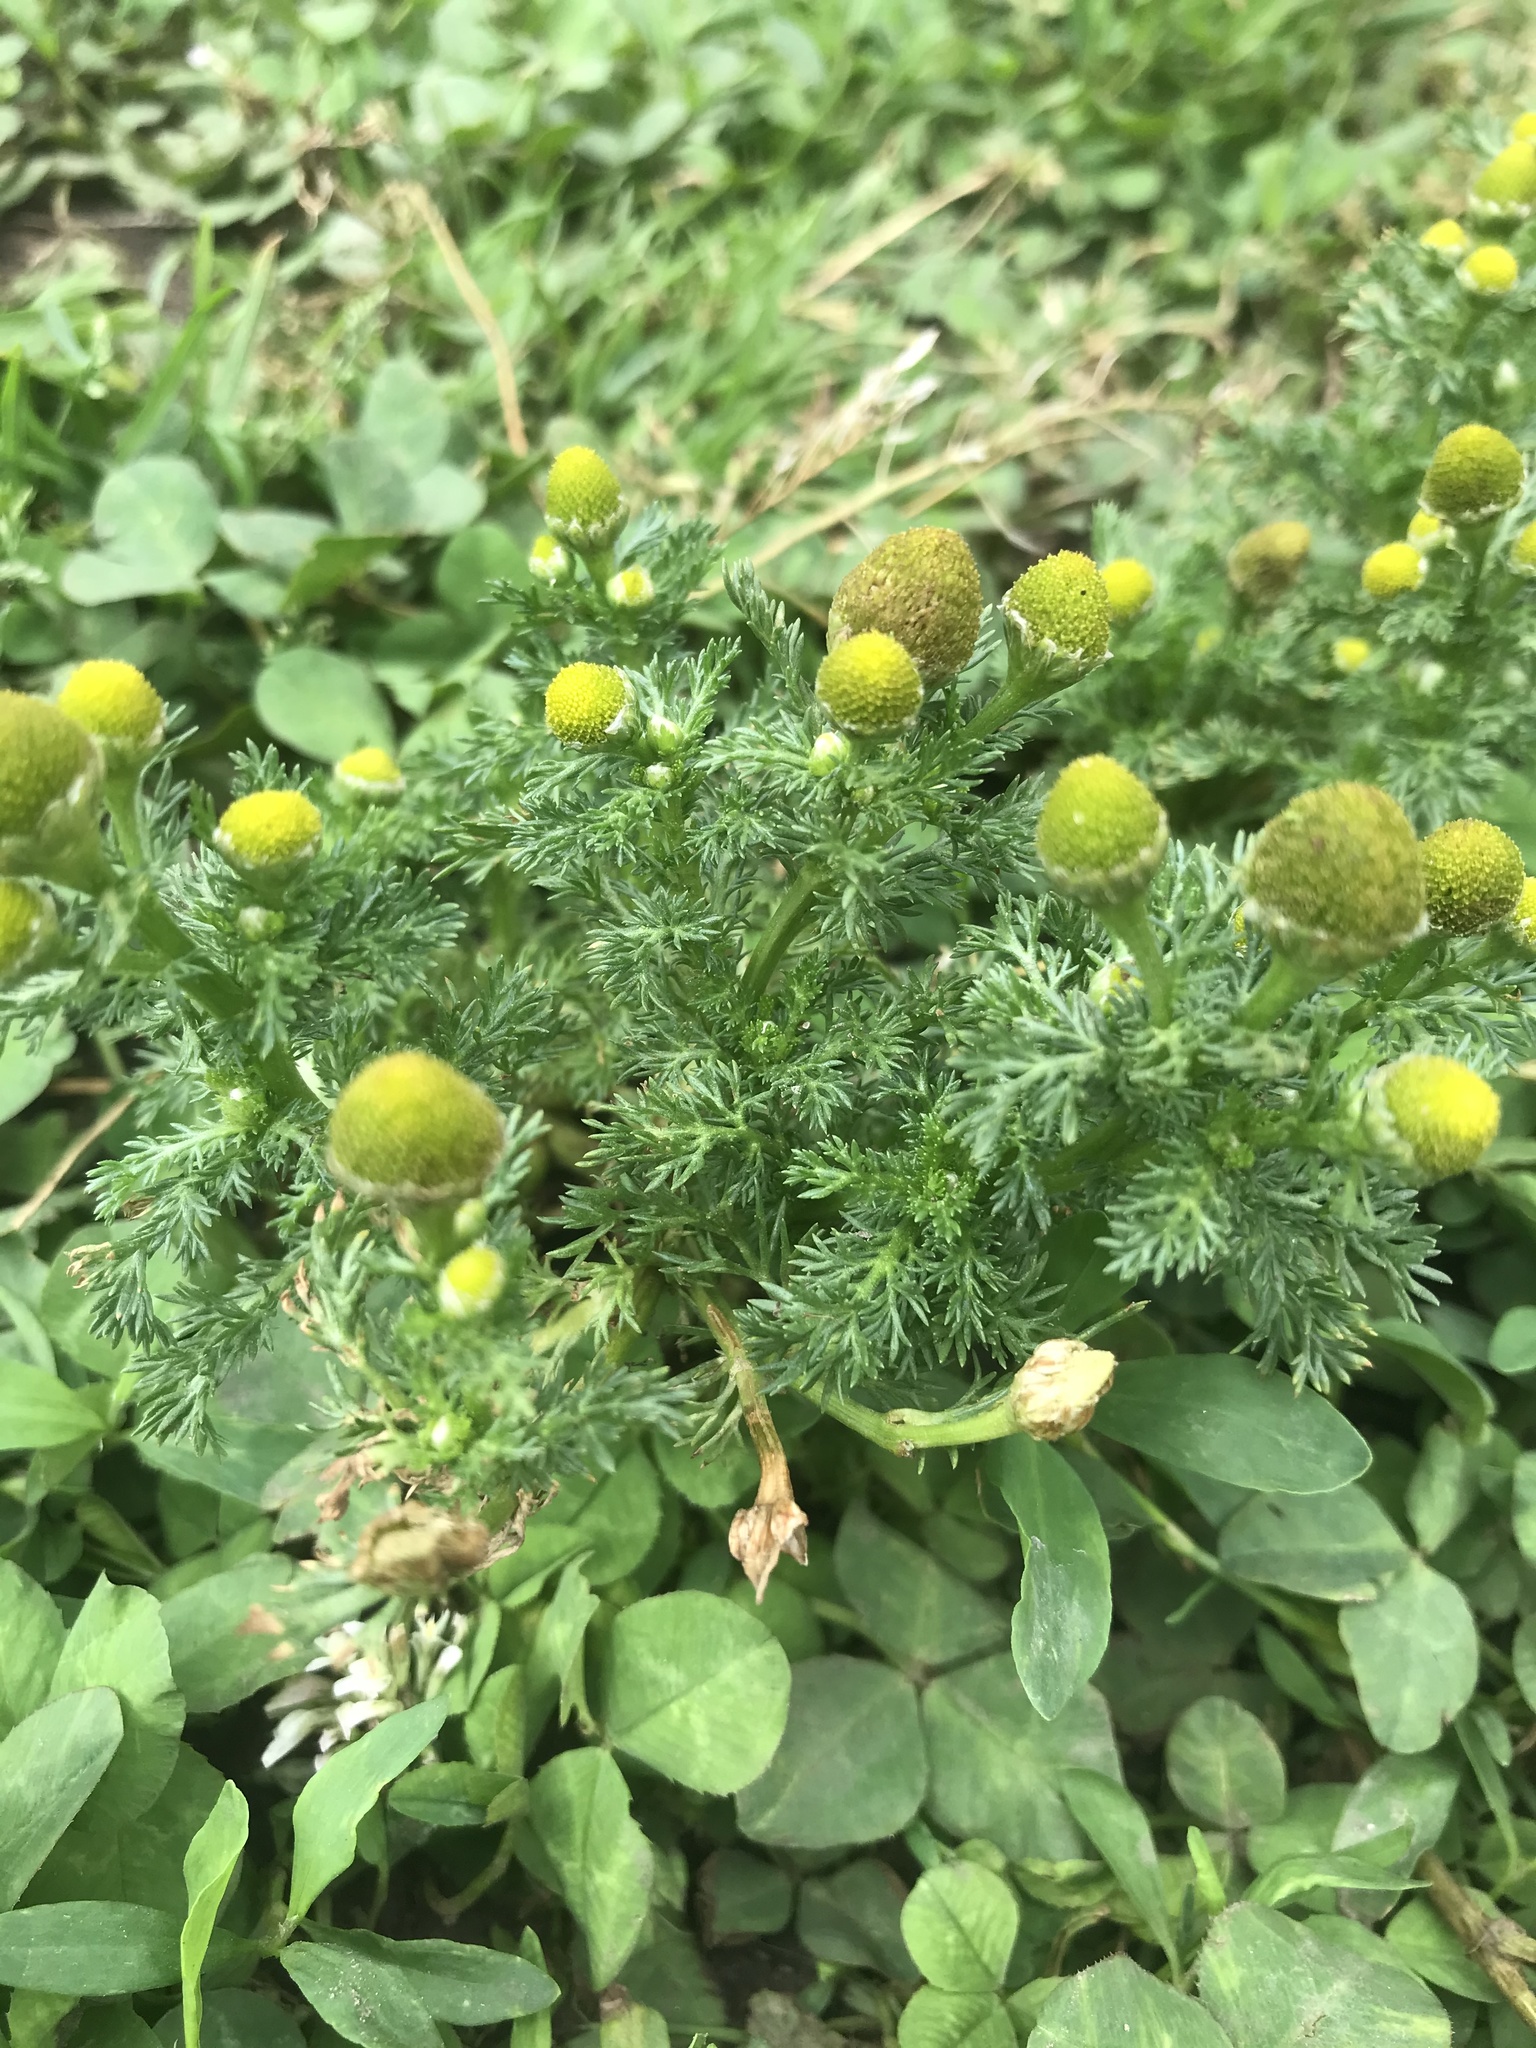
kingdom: Plantae
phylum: Tracheophyta
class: Magnoliopsida
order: Asterales
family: Asteraceae
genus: Matricaria
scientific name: Matricaria discoidea
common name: Disc mayweed
